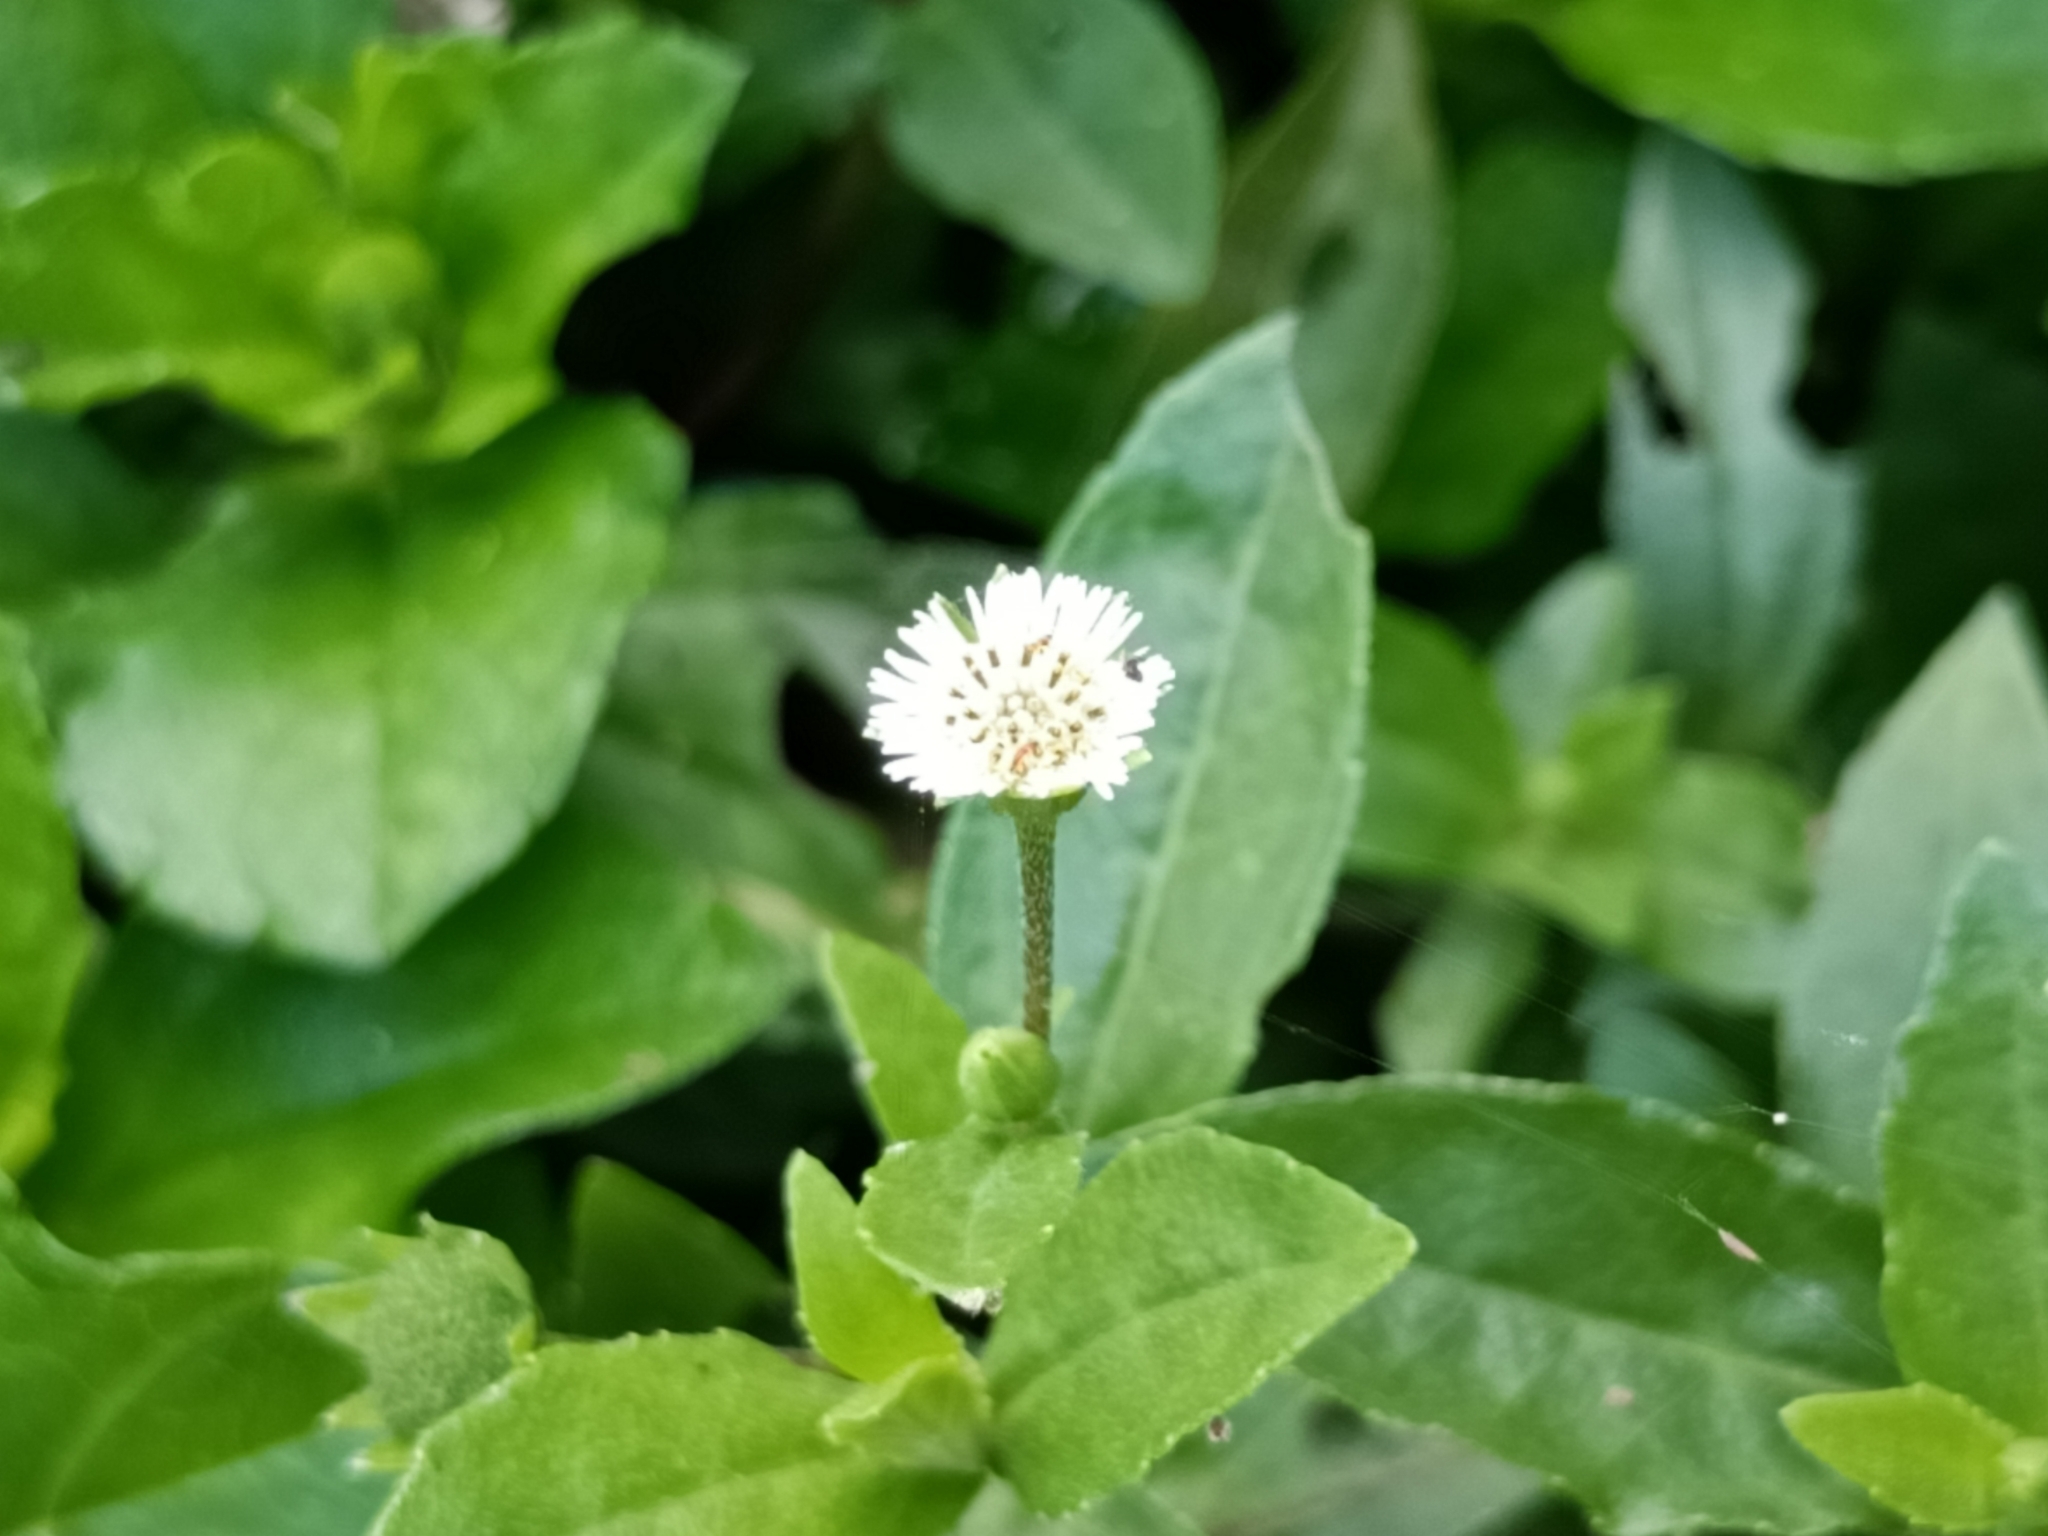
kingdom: Plantae
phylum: Tracheophyta
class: Magnoliopsida
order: Asterales
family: Asteraceae
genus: Eclipta
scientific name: Eclipta prostrata
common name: False daisy
